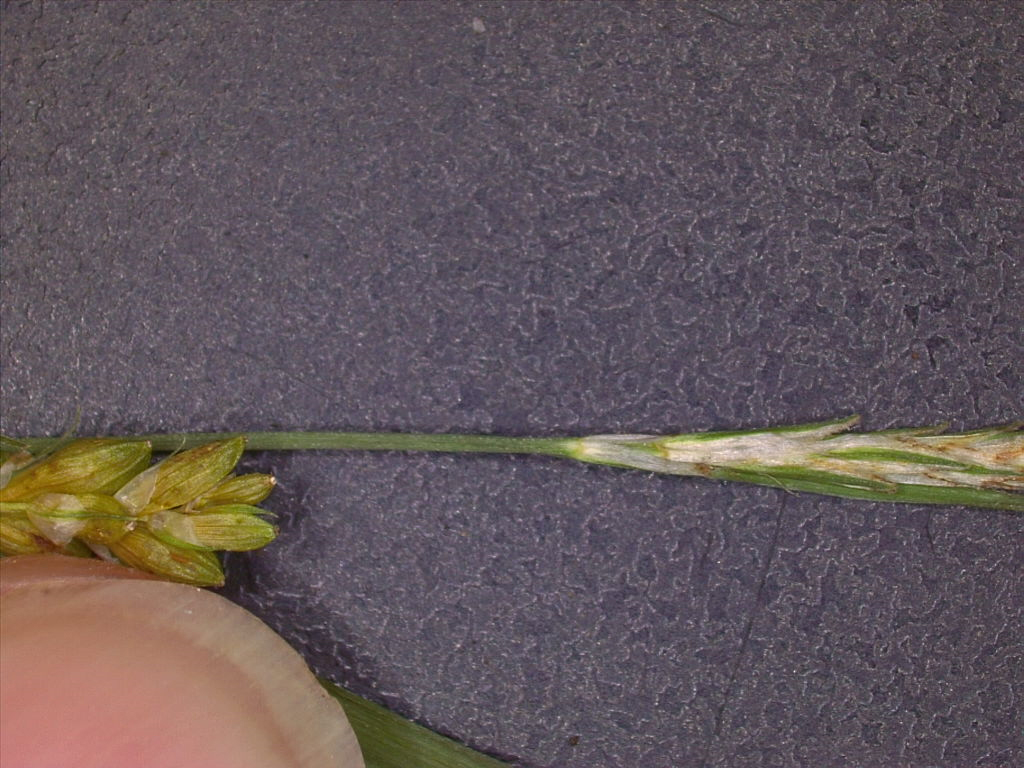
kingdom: Plantae
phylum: Tracheophyta
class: Liliopsida
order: Poales
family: Cyperaceae
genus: Carex
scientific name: Carex corrugata
